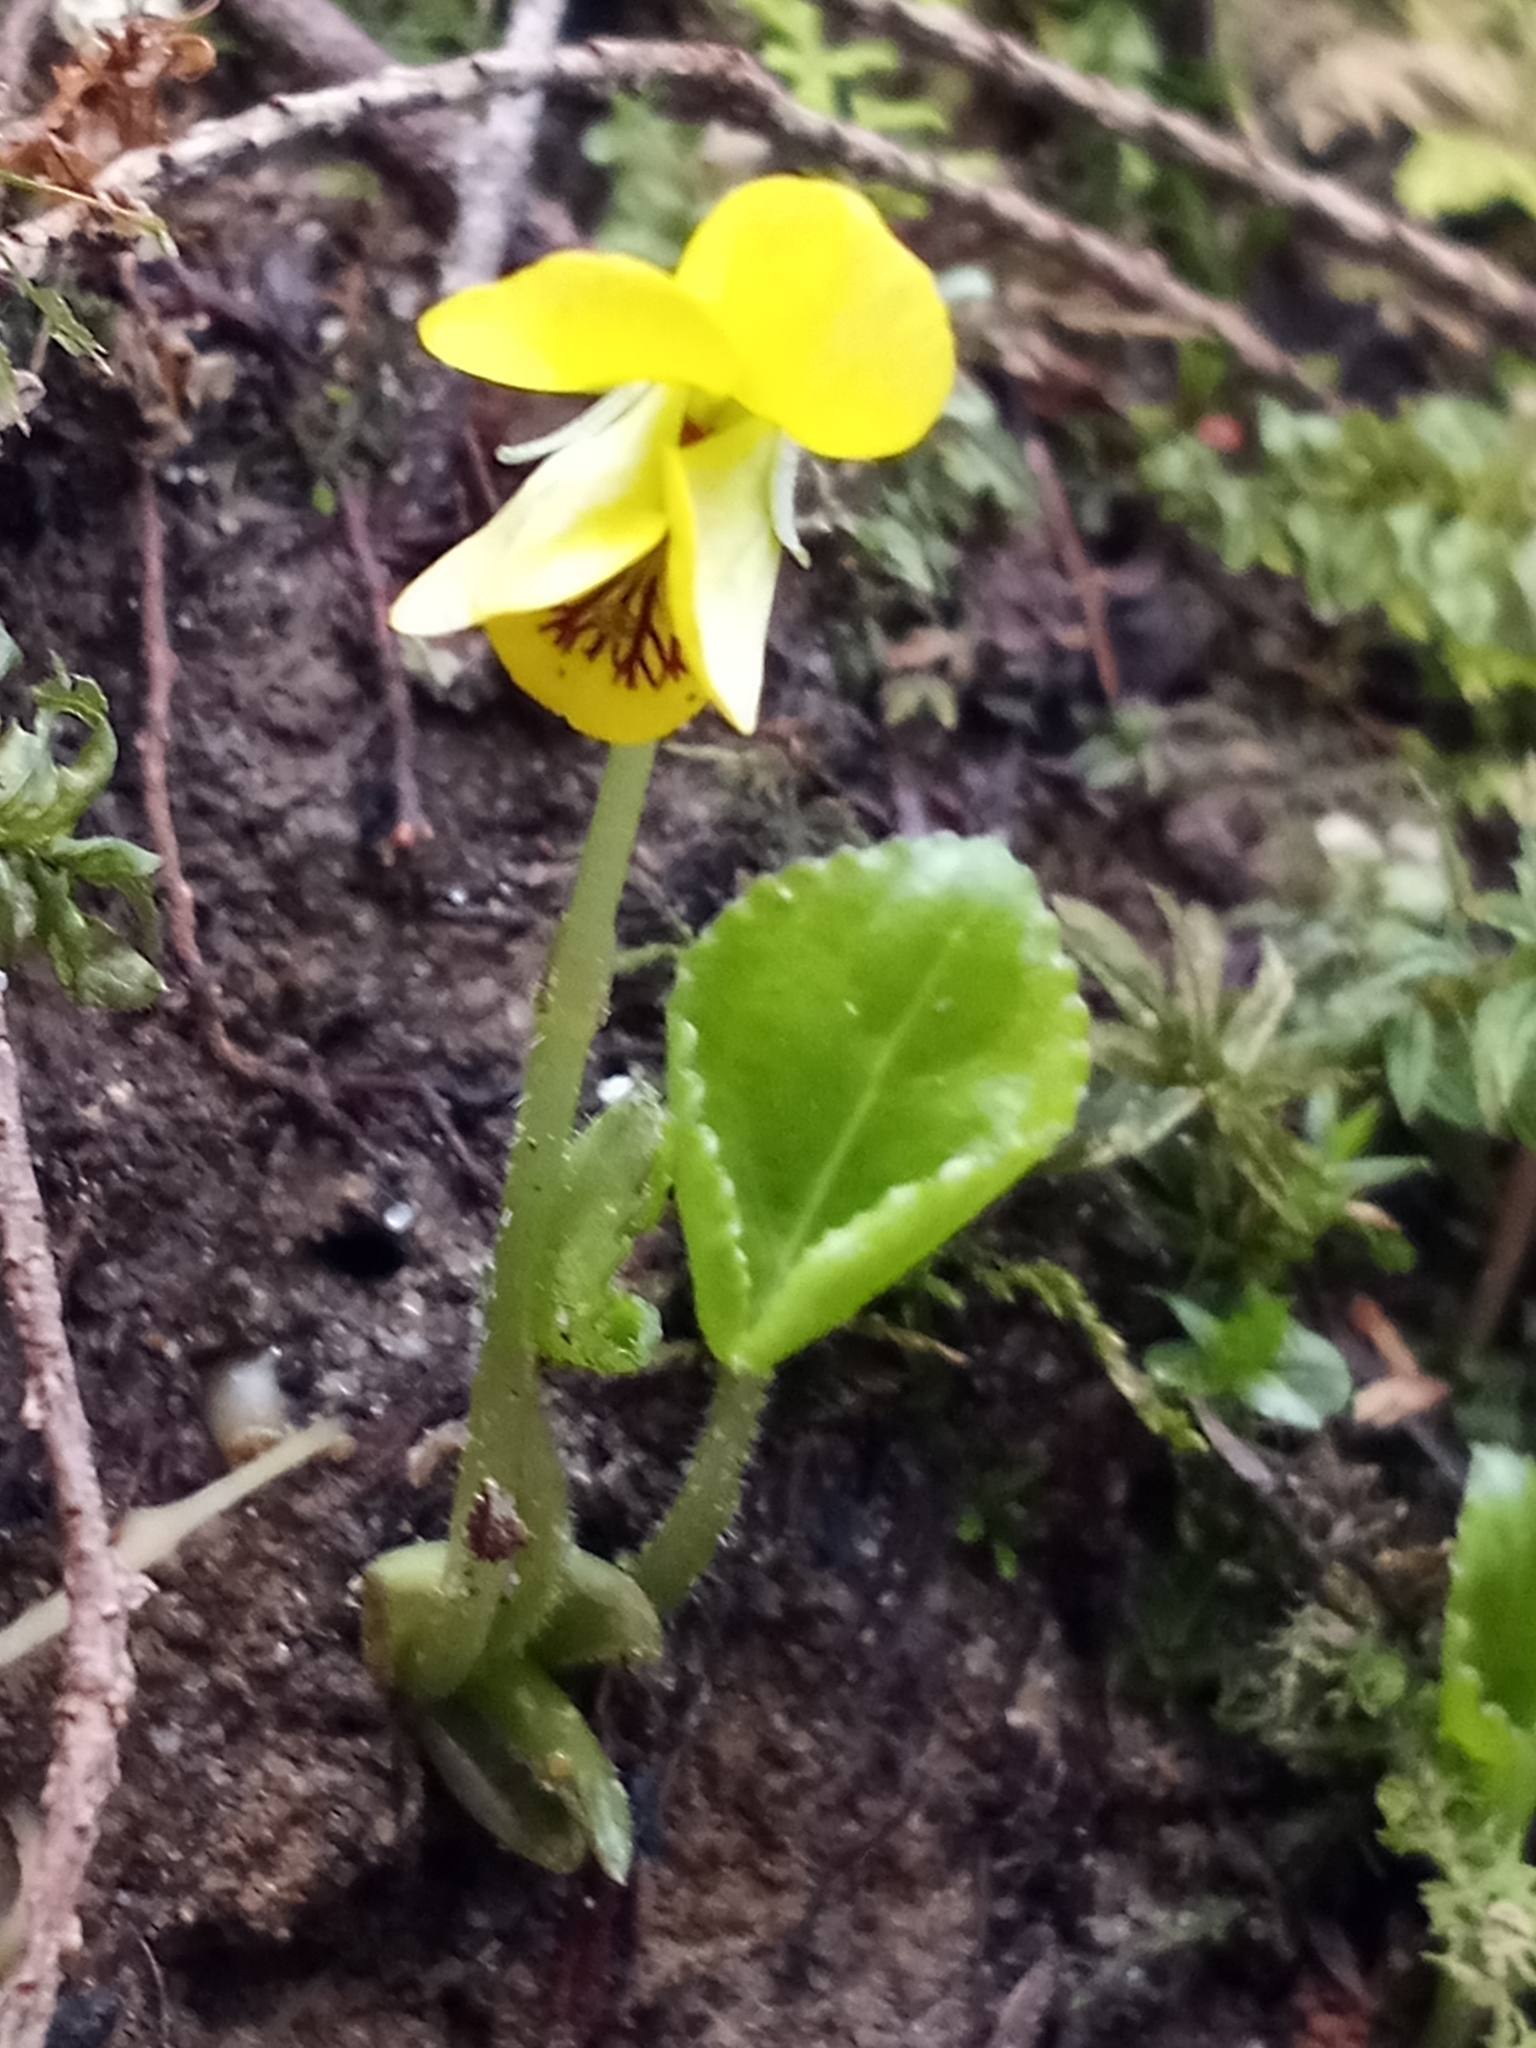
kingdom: Plantae
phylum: Tracheophyta
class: Magnoliopsida
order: Malpighiales
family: Violaceae
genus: Viola
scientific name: Viola rotundifolia
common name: Early yellow violet
